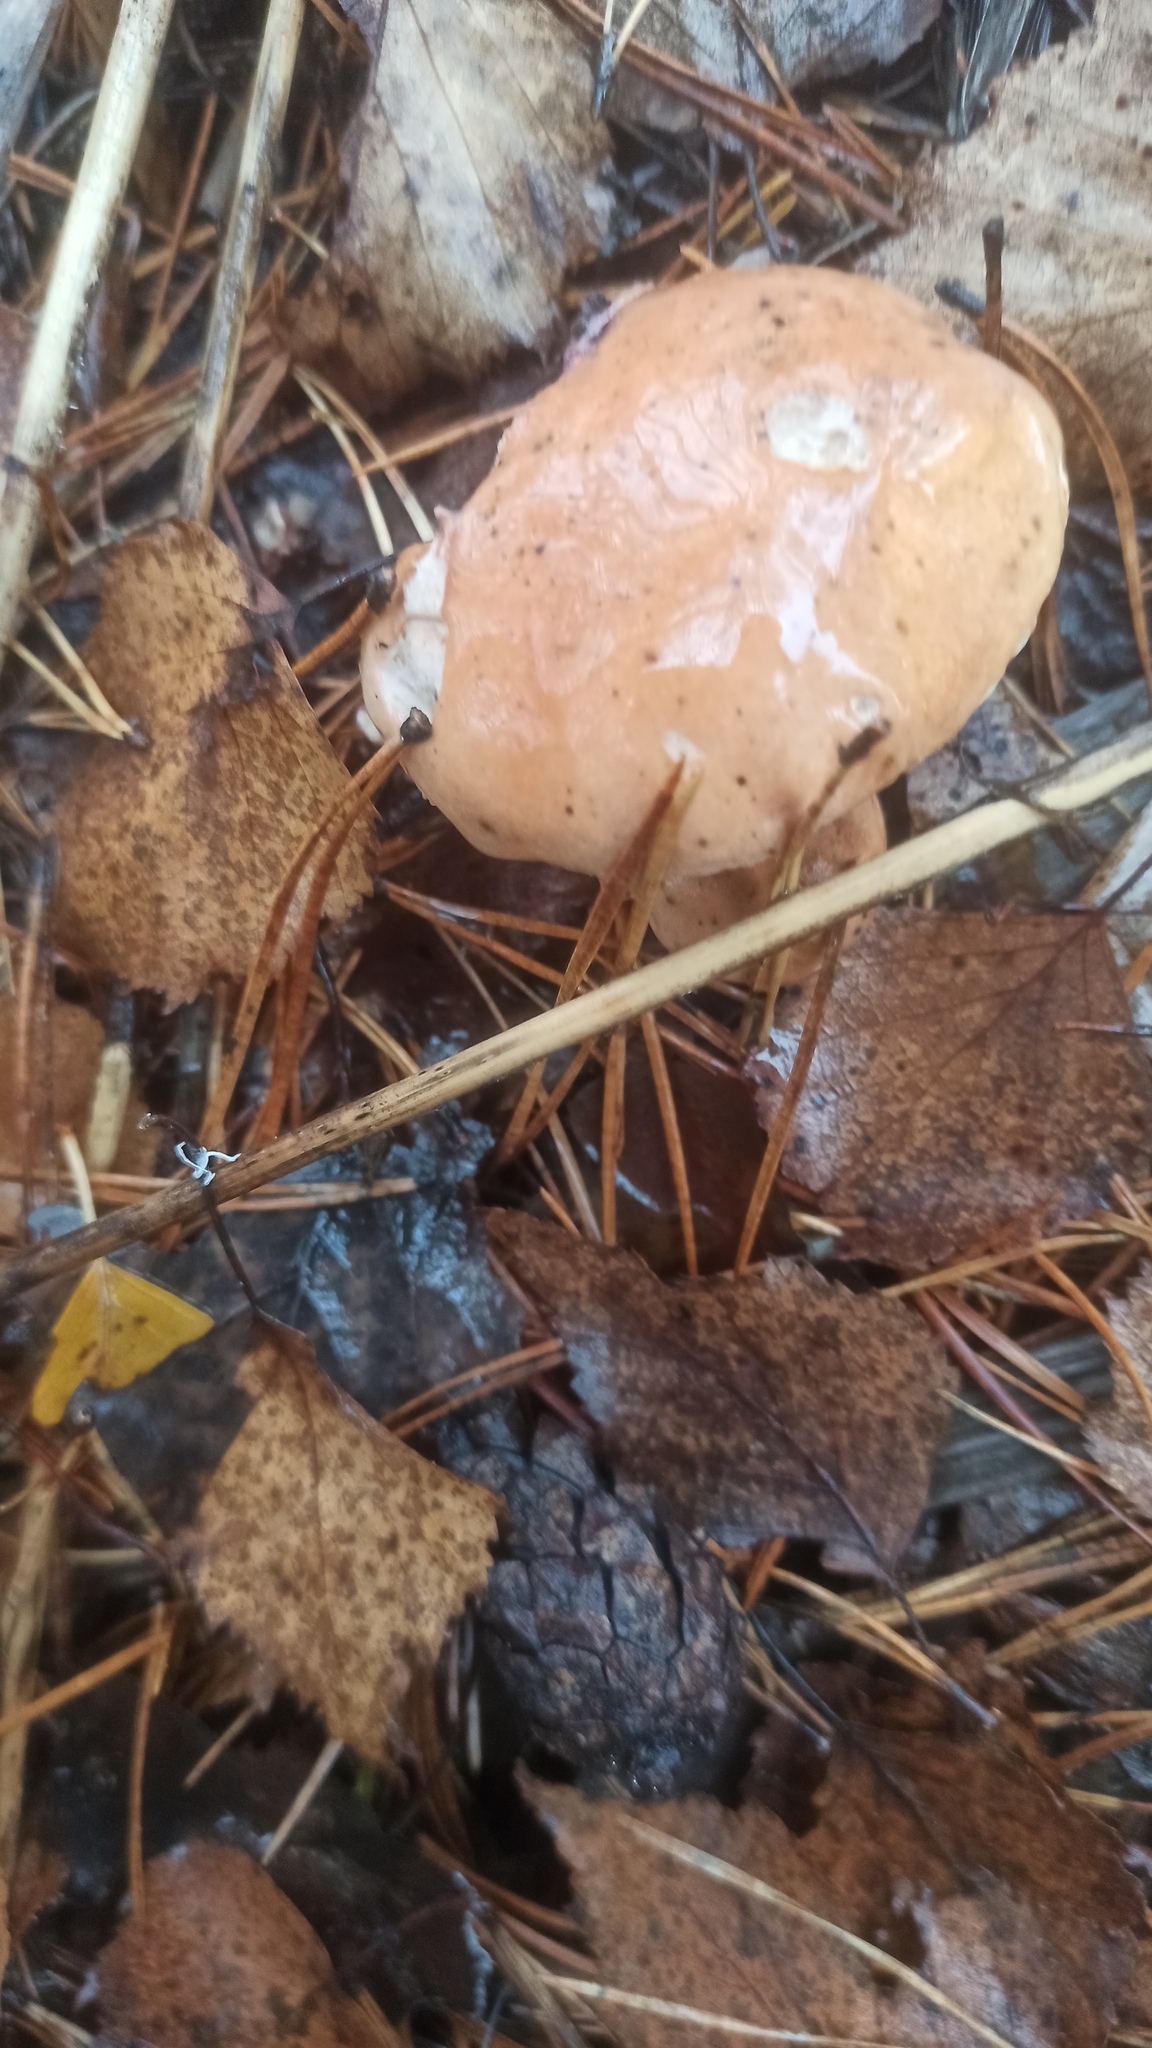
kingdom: Fungi
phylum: Basidiomycota
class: Agaricomycetes
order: Boletales
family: Suillaceae
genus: Suillus
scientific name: Suillus bovinus
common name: Bovine bolete
